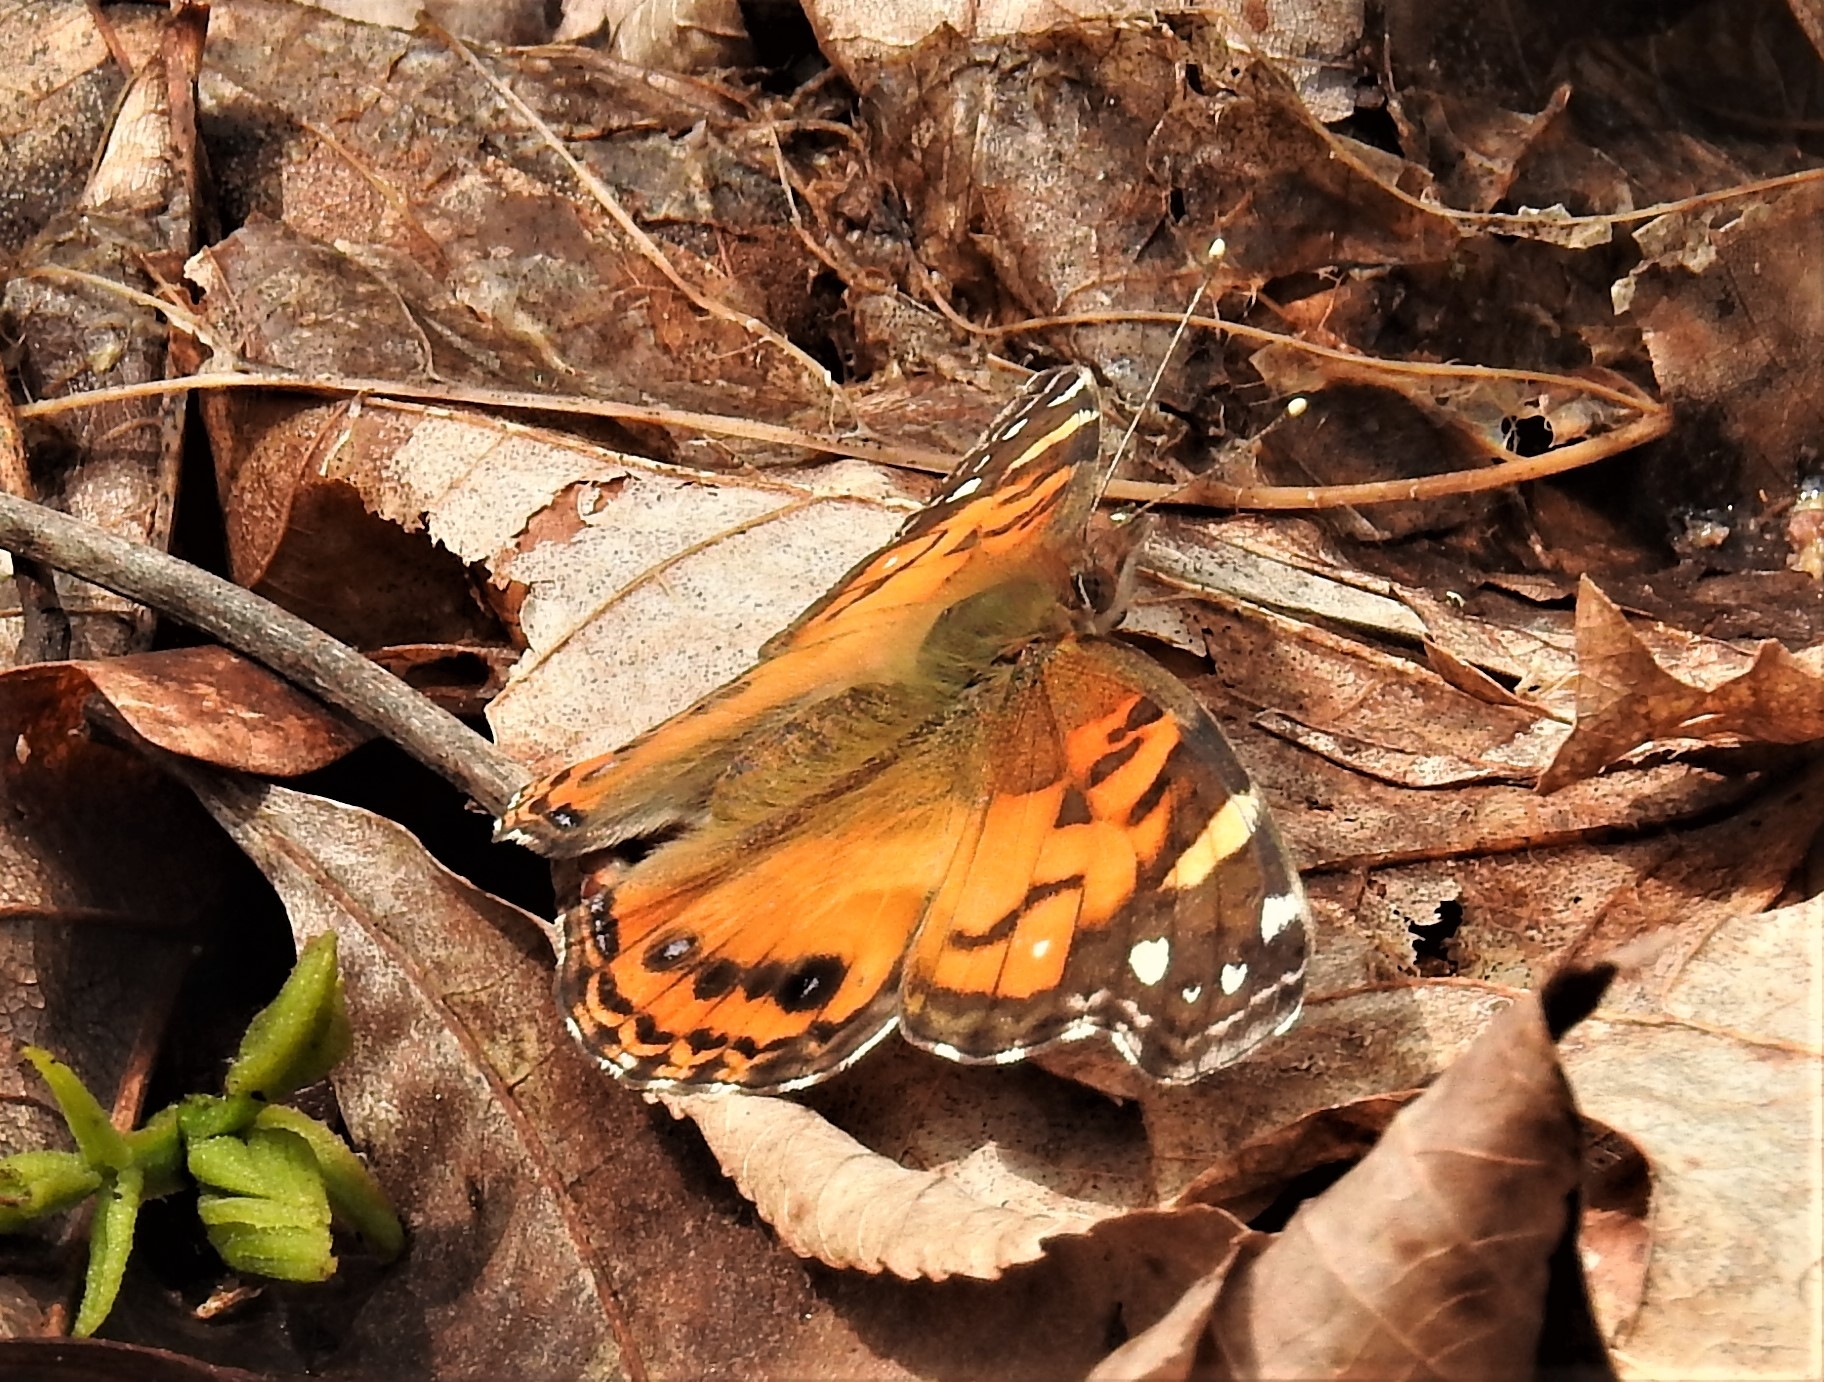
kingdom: Animalia
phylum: Arthropoda
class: Insecta
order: Lepidoptera
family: Nymphalidae
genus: Vanessa
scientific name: Vanessa virginiensis
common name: American lady
